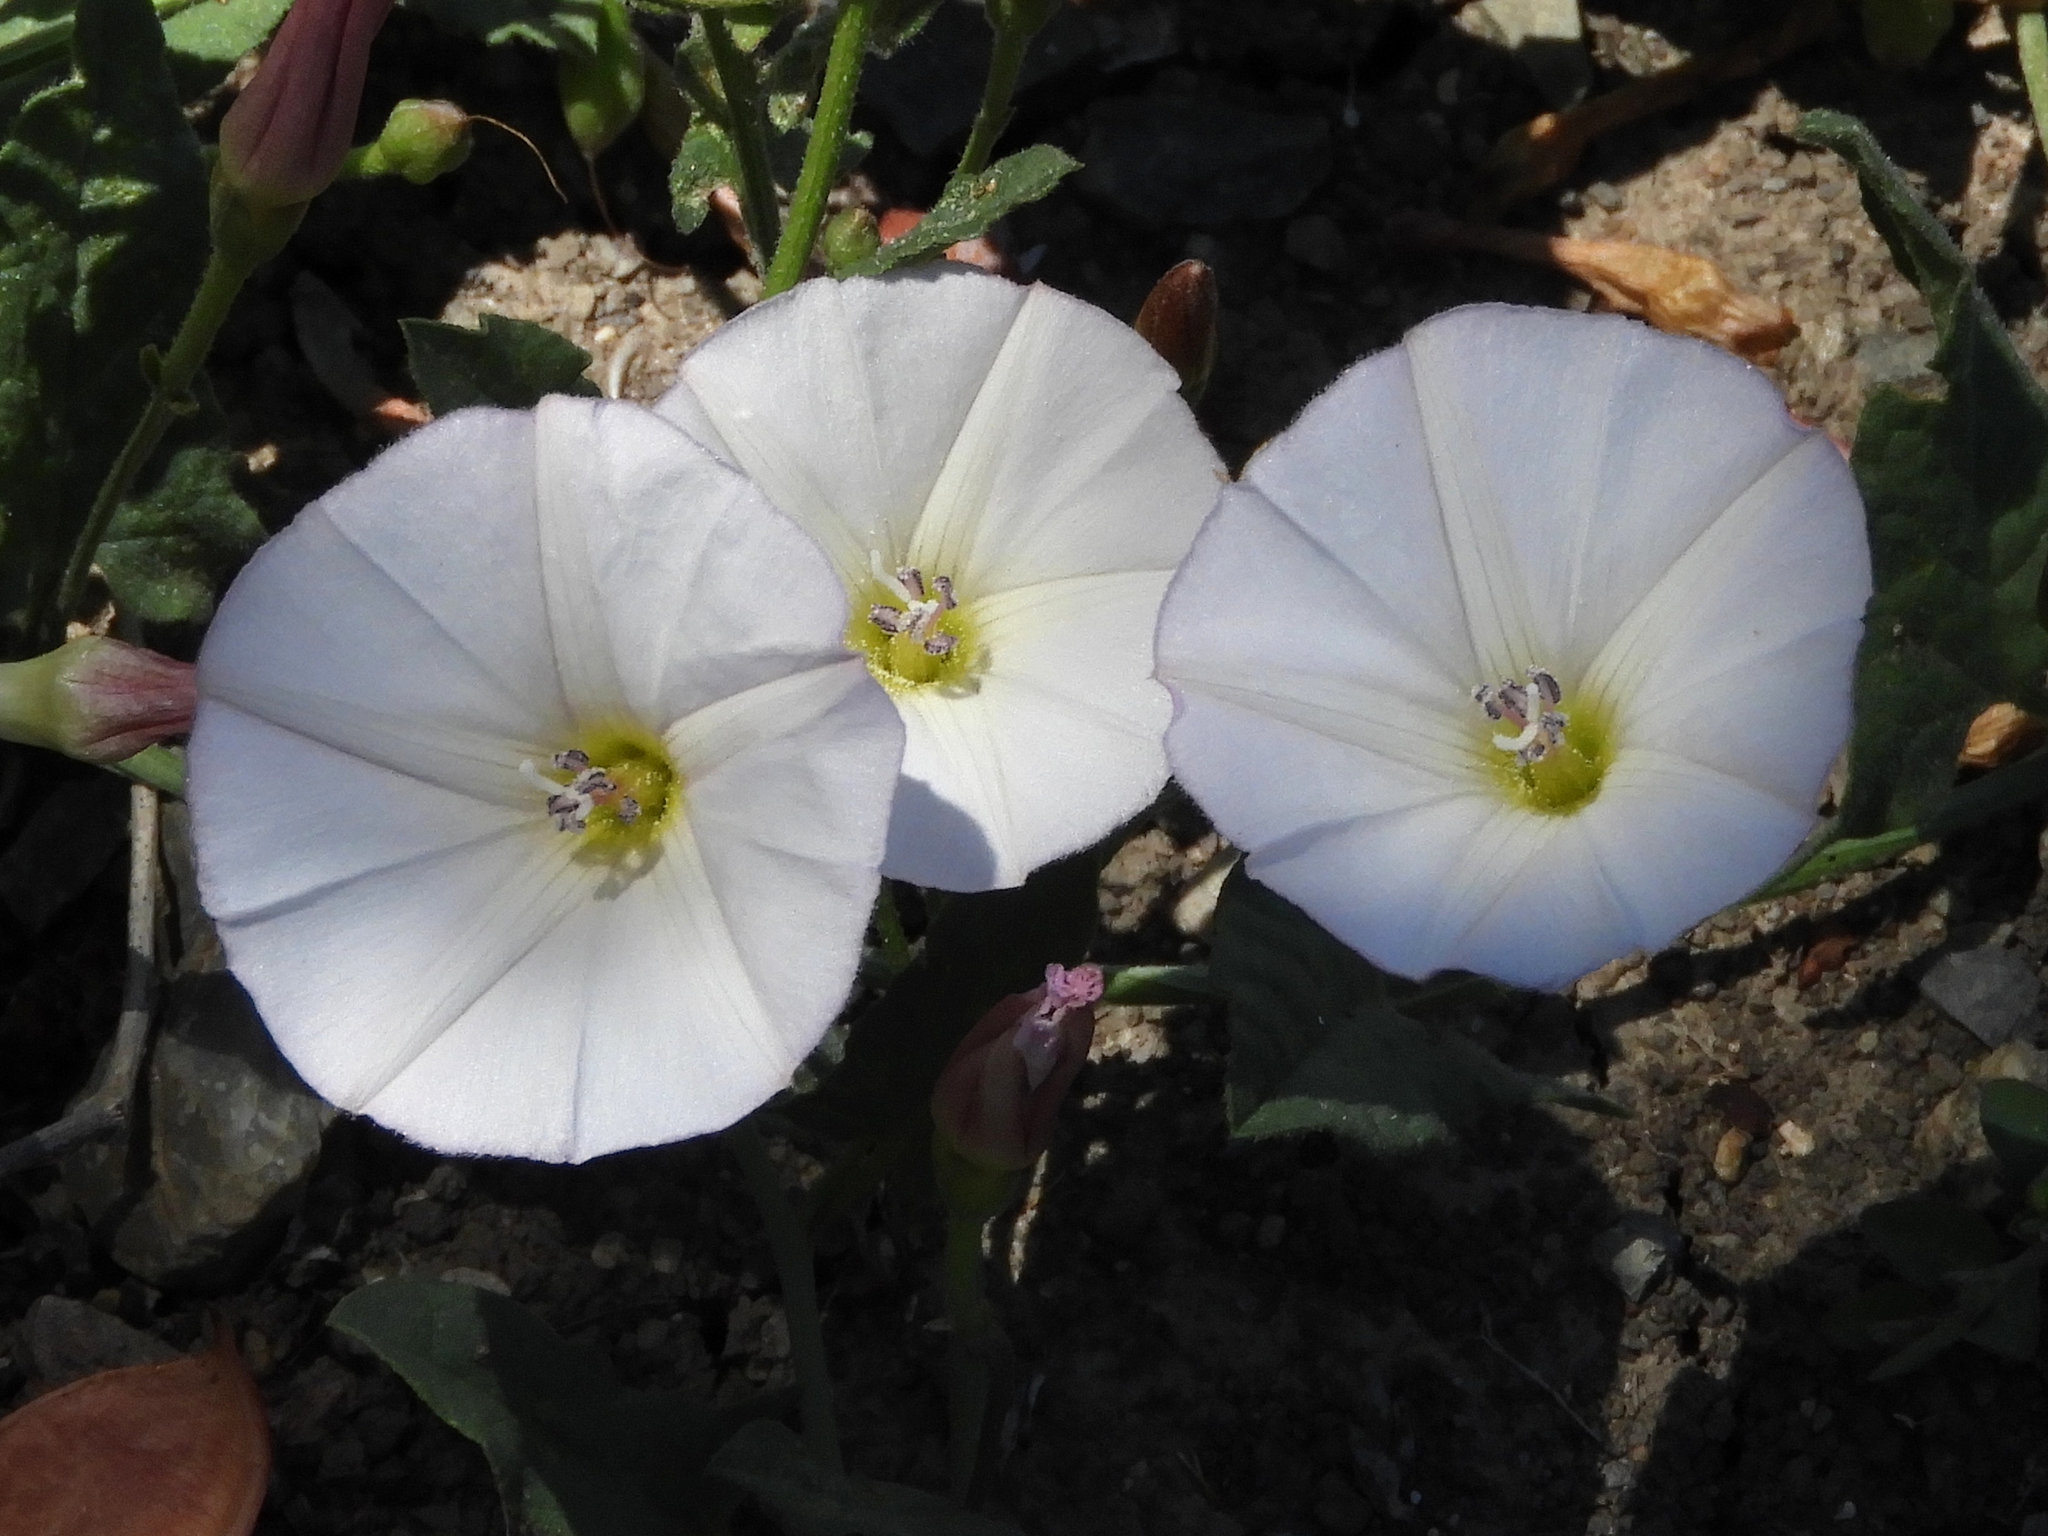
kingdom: Plantae
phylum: Tracheophyta
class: Magnoliopsida
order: Solanales
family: Convolvulaceae
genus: Convolvulus
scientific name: Convolvulus arvensis
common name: Field bindweed
